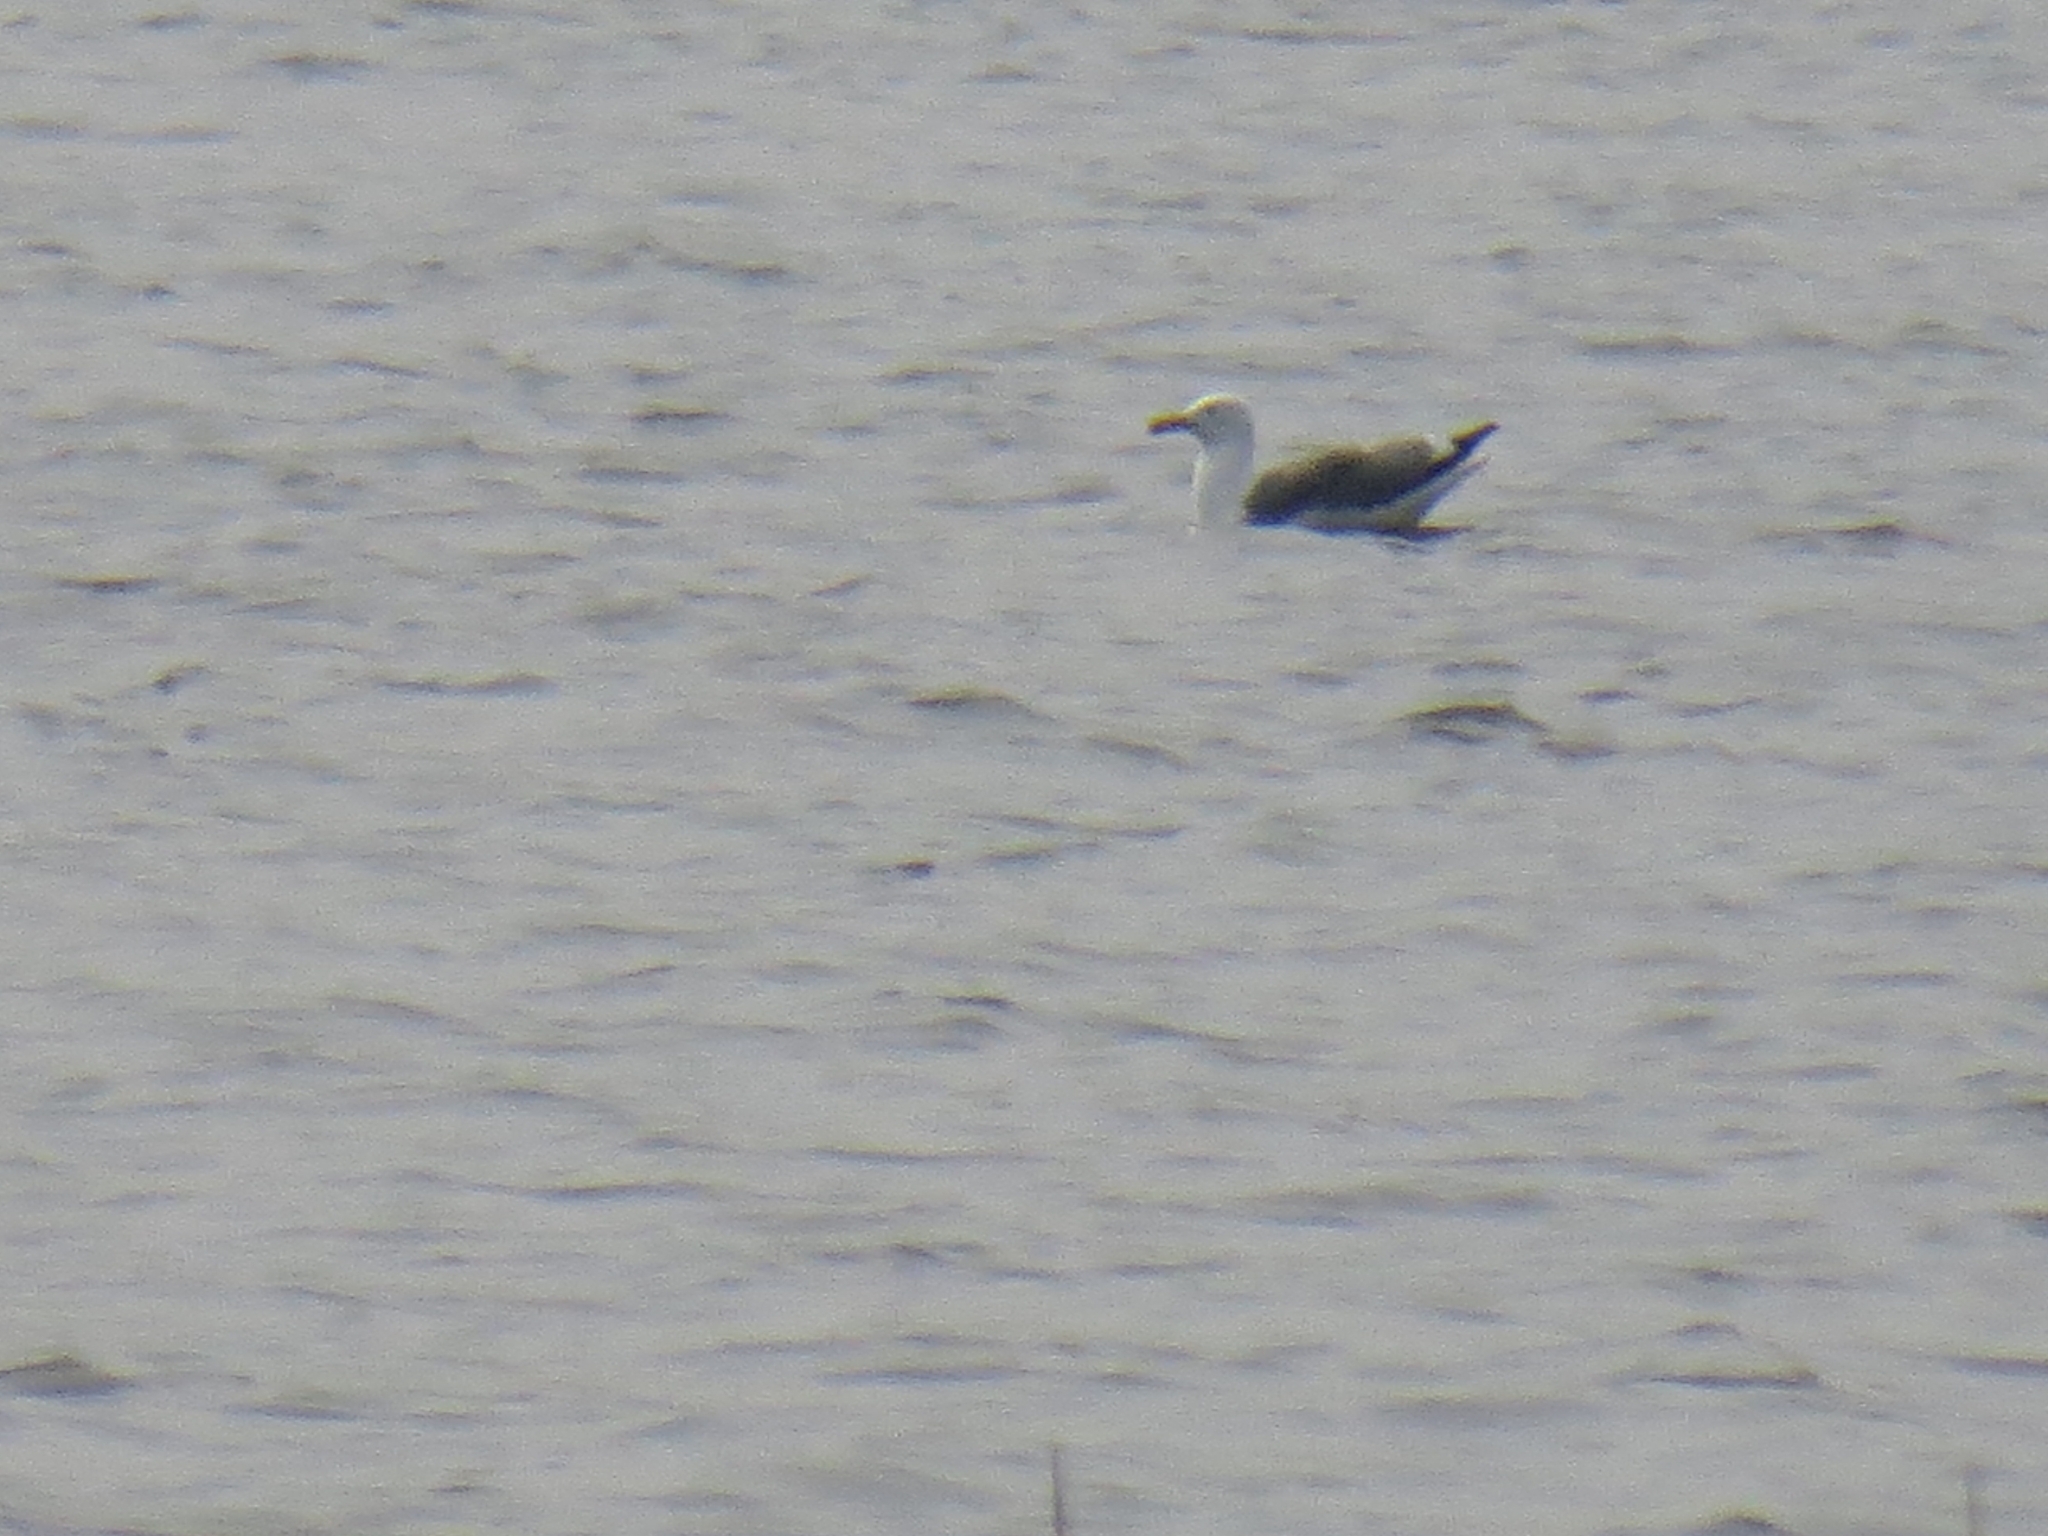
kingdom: Animalia
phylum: Chordata
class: Aves
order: Charadriiformes
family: Laridae
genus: Larus
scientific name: Larus fuscus
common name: Lesser black-backed gull
